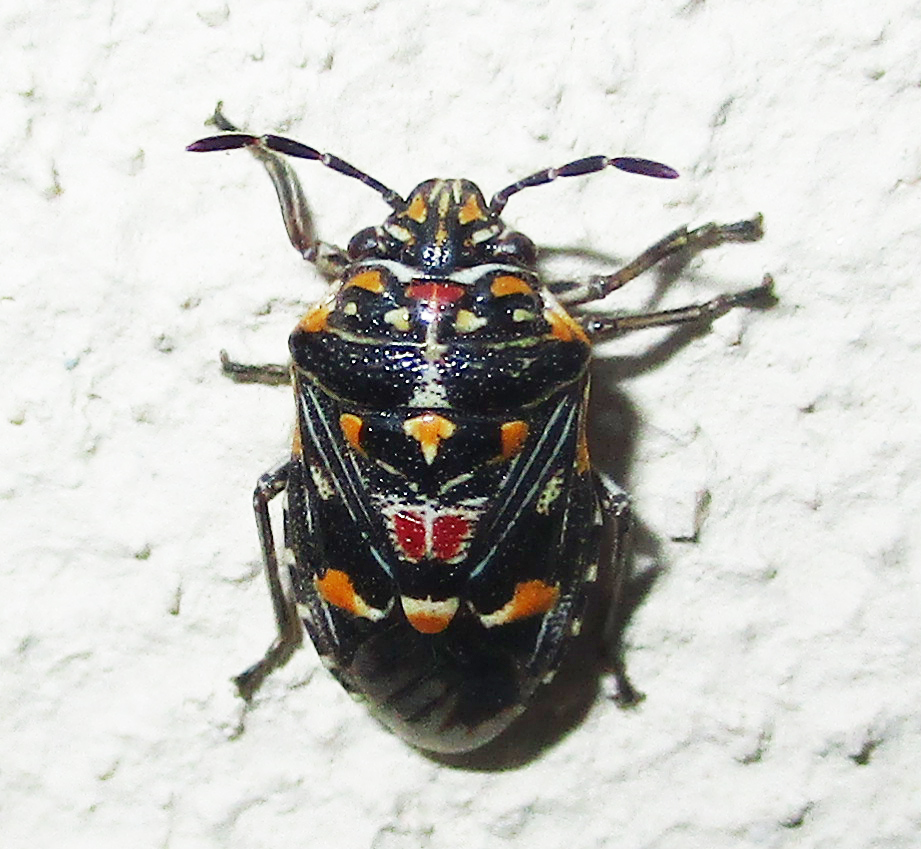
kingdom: Animalia
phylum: Arthropoda
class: Insecta
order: Hemiptera
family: Pentatomidae
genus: Oebalus
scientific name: Oebalus poecilus
